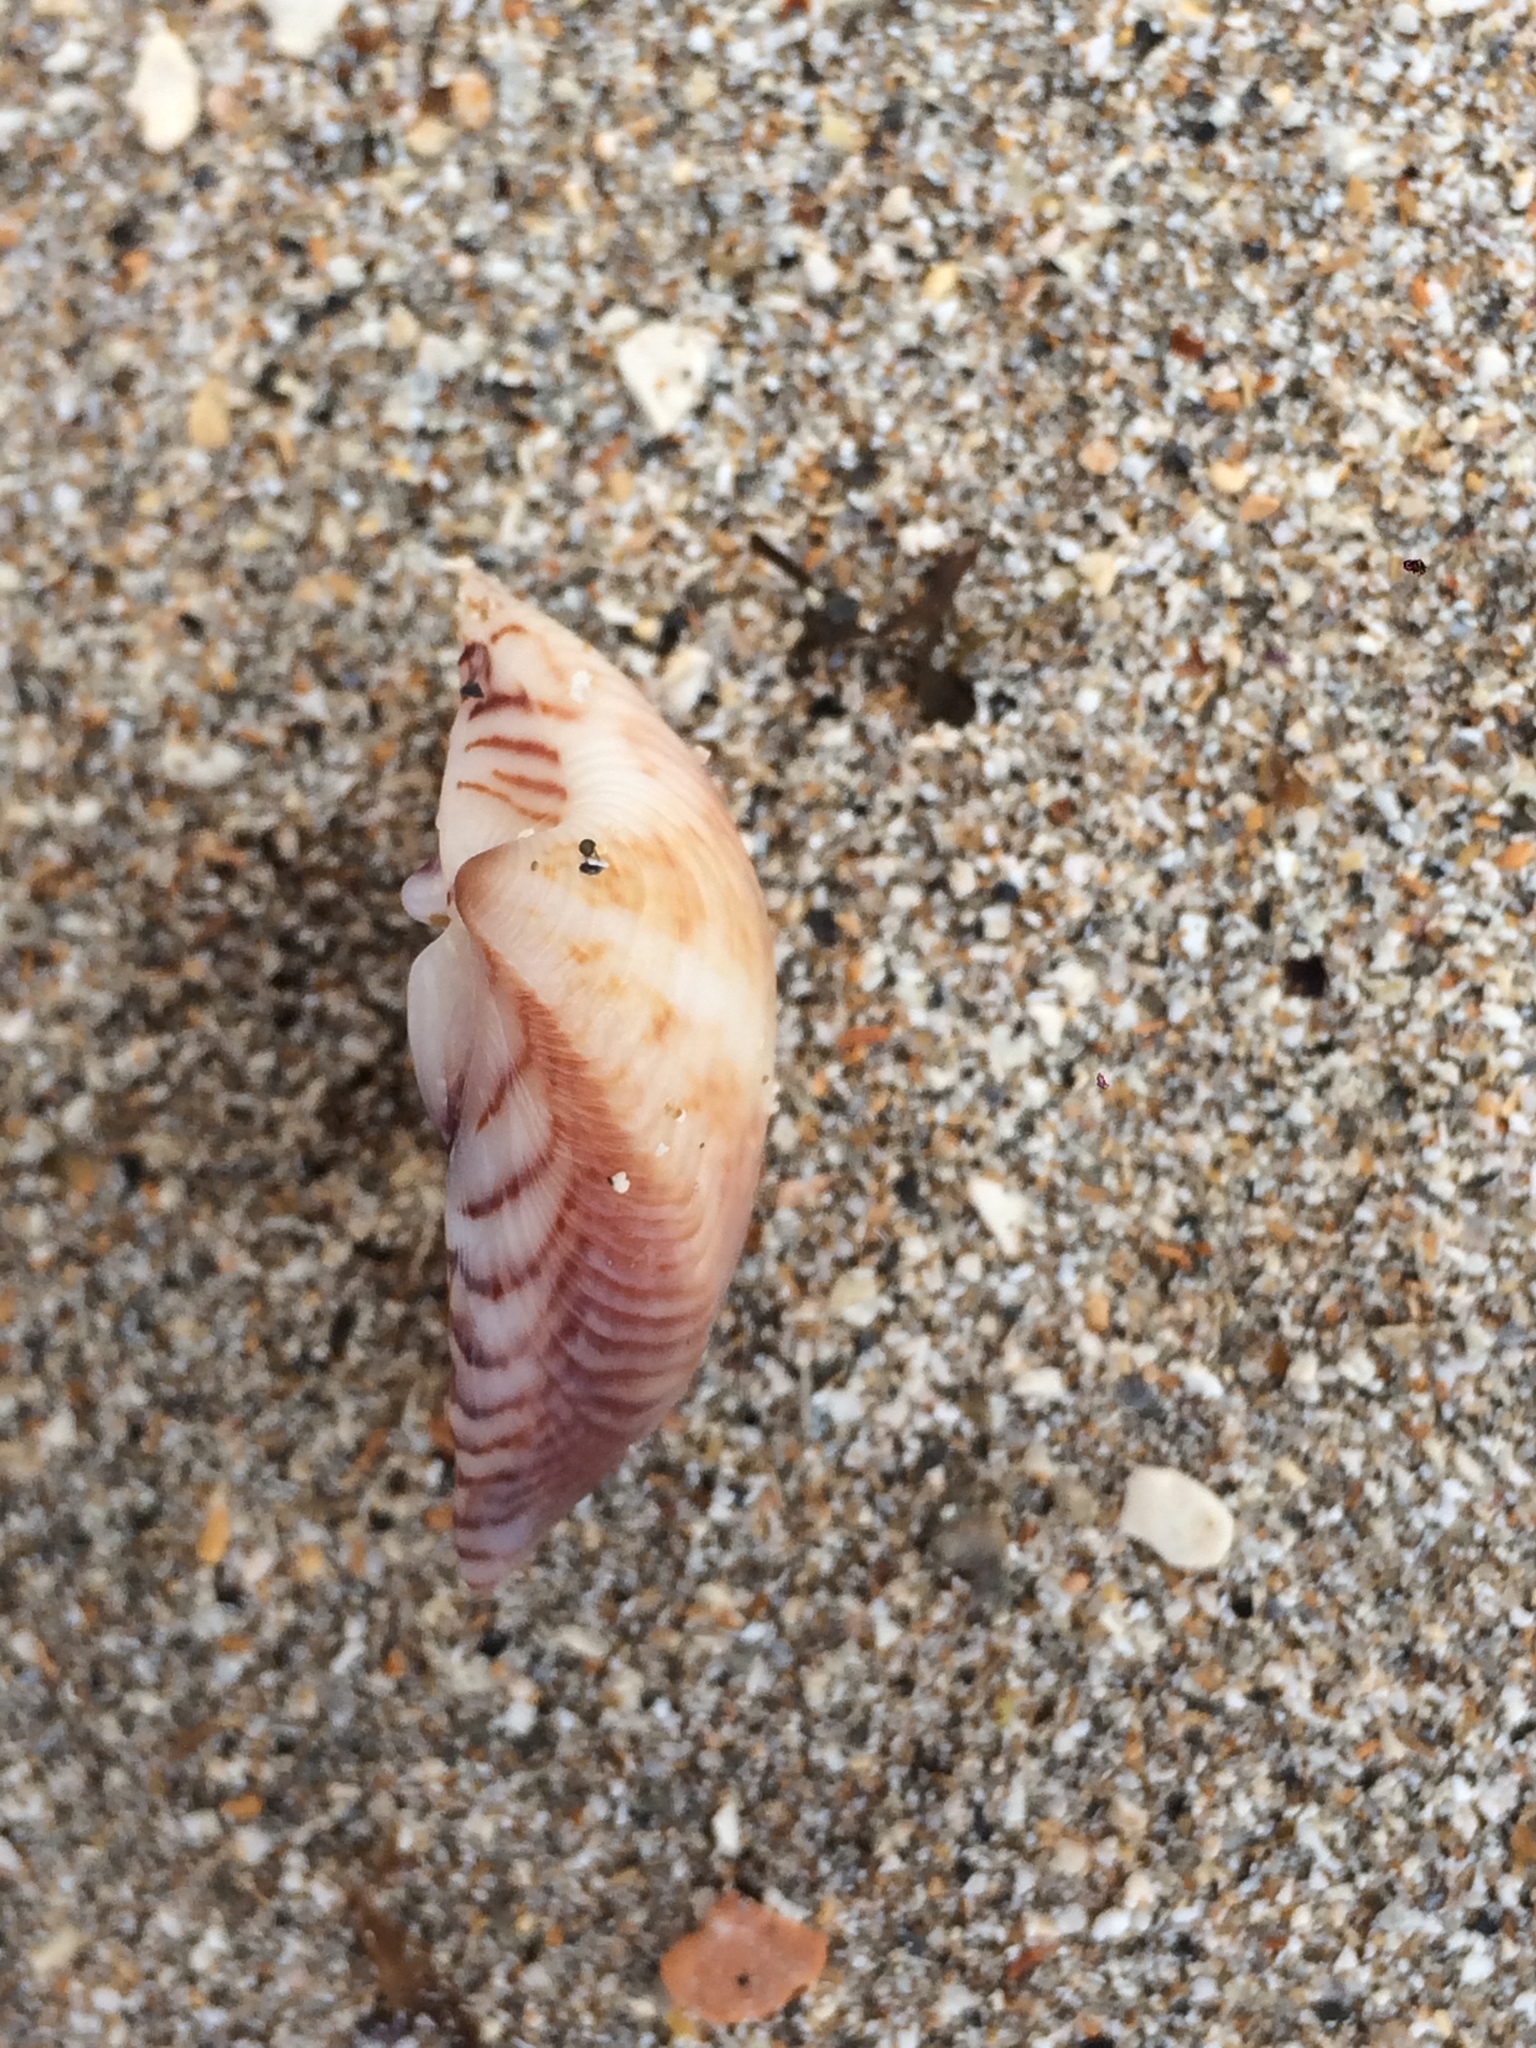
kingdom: Animalia
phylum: Mollusca
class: Bivalvia
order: Venerida
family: Veneridae
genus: Anomalocardia
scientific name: Anomalocardia flexuosa
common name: Carib pointed venus
